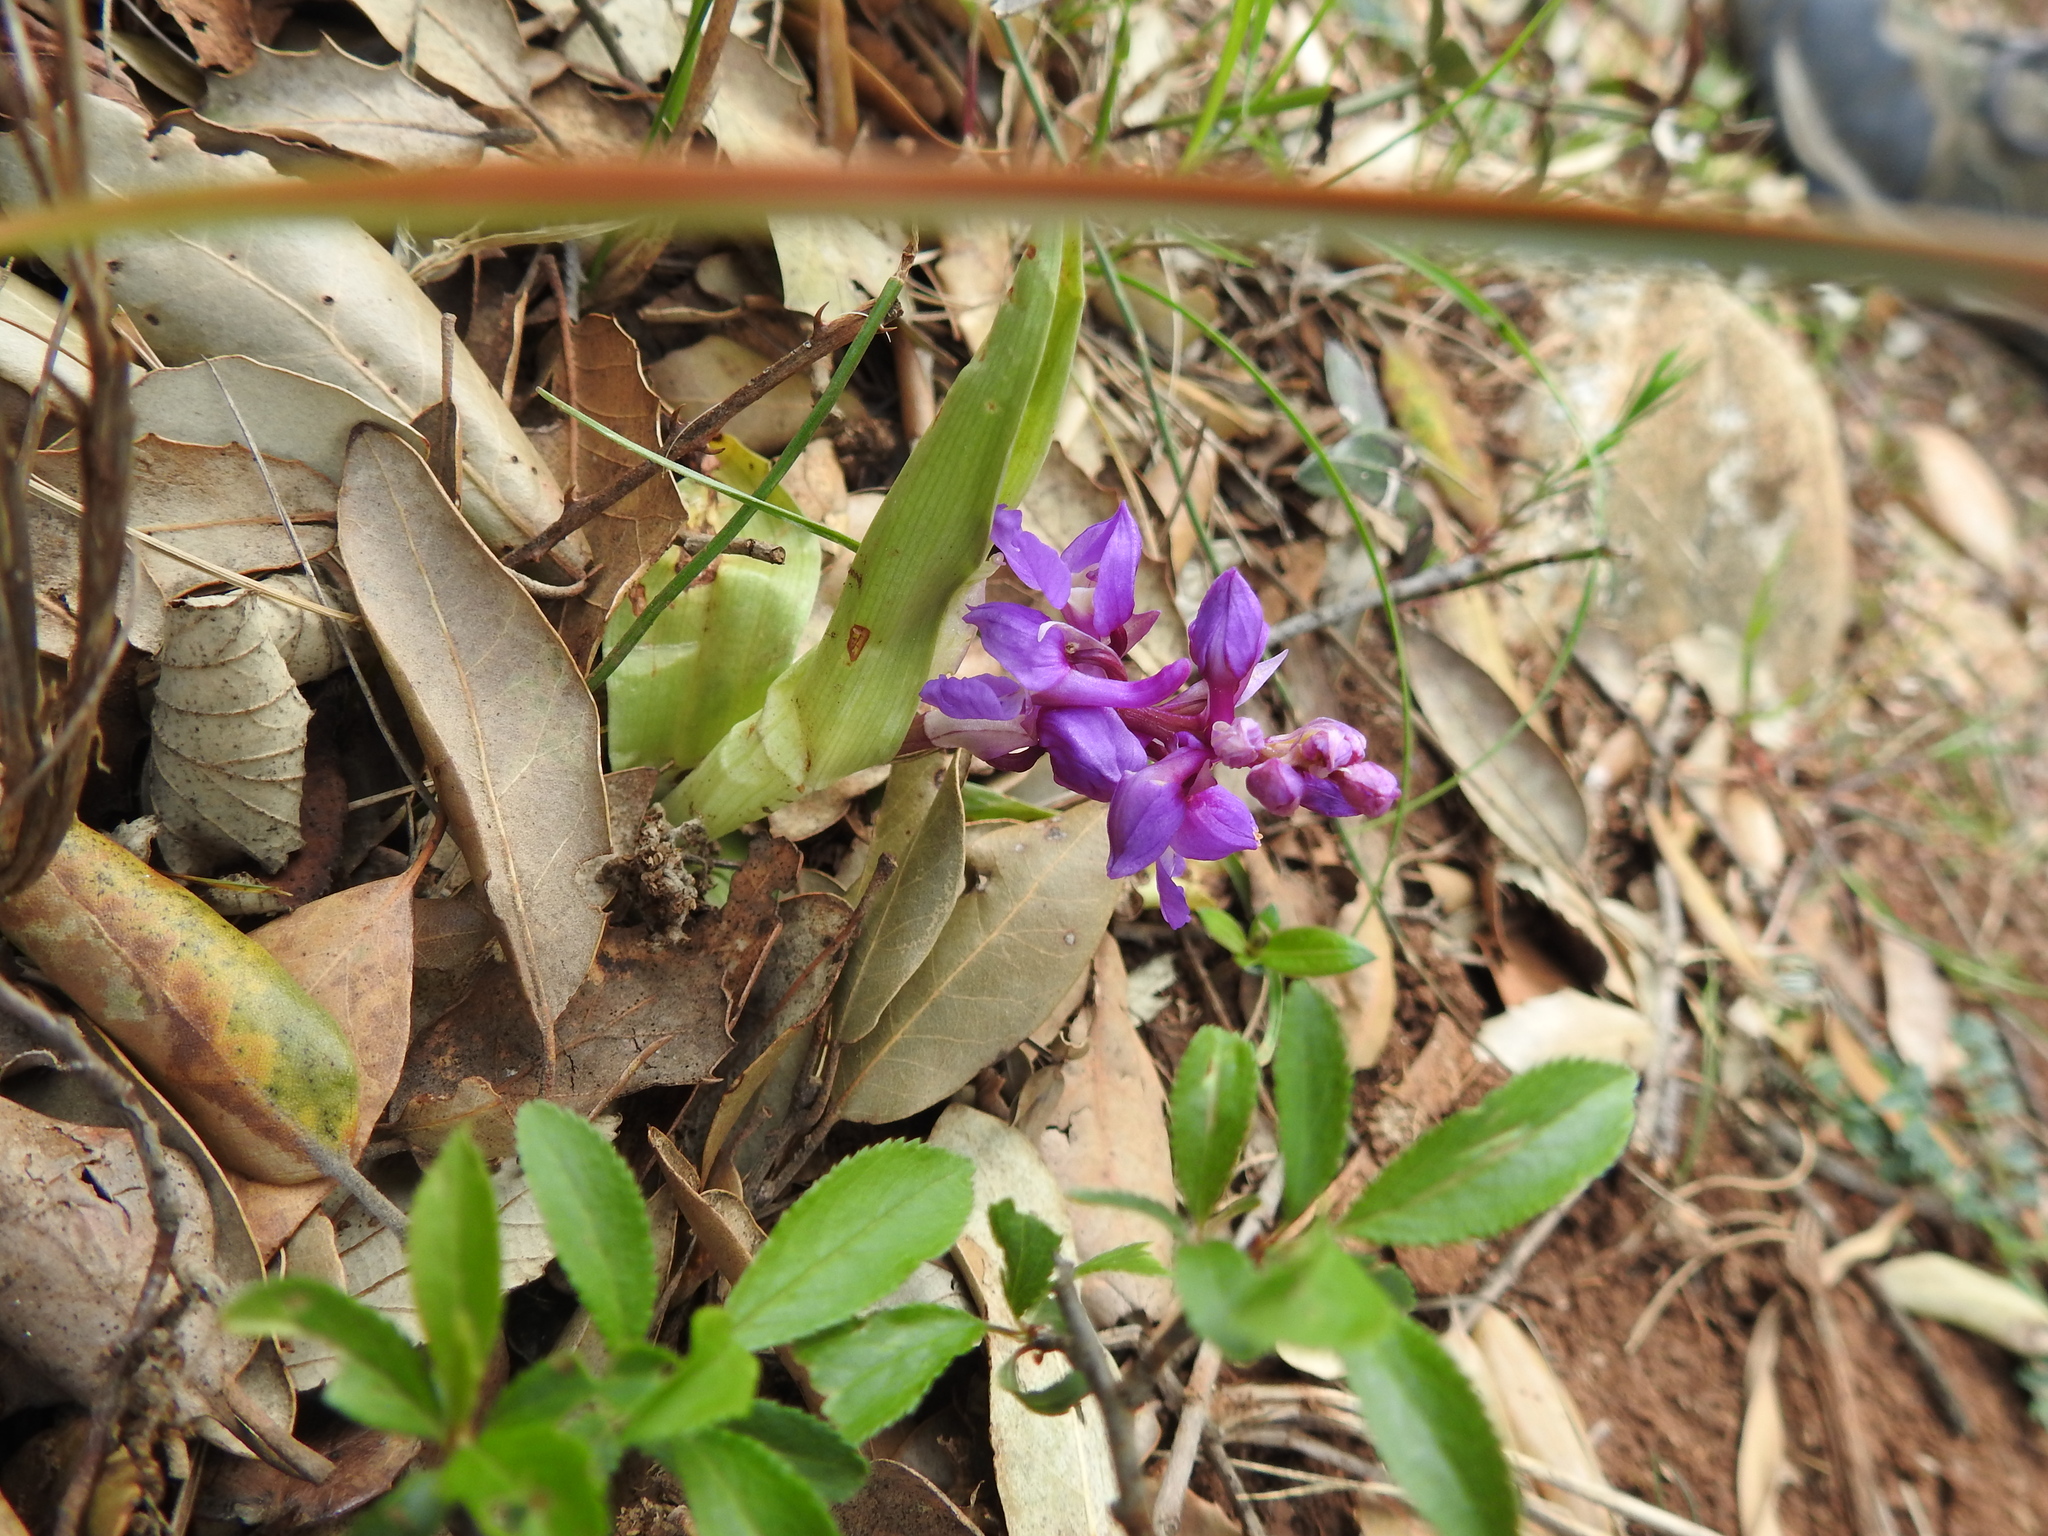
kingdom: Plantae
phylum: Tracheophyta
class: Liliopsida
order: Asparagales
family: Orchidaceae
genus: Orchis
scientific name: Orchis mascula
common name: Early-purple orchid
